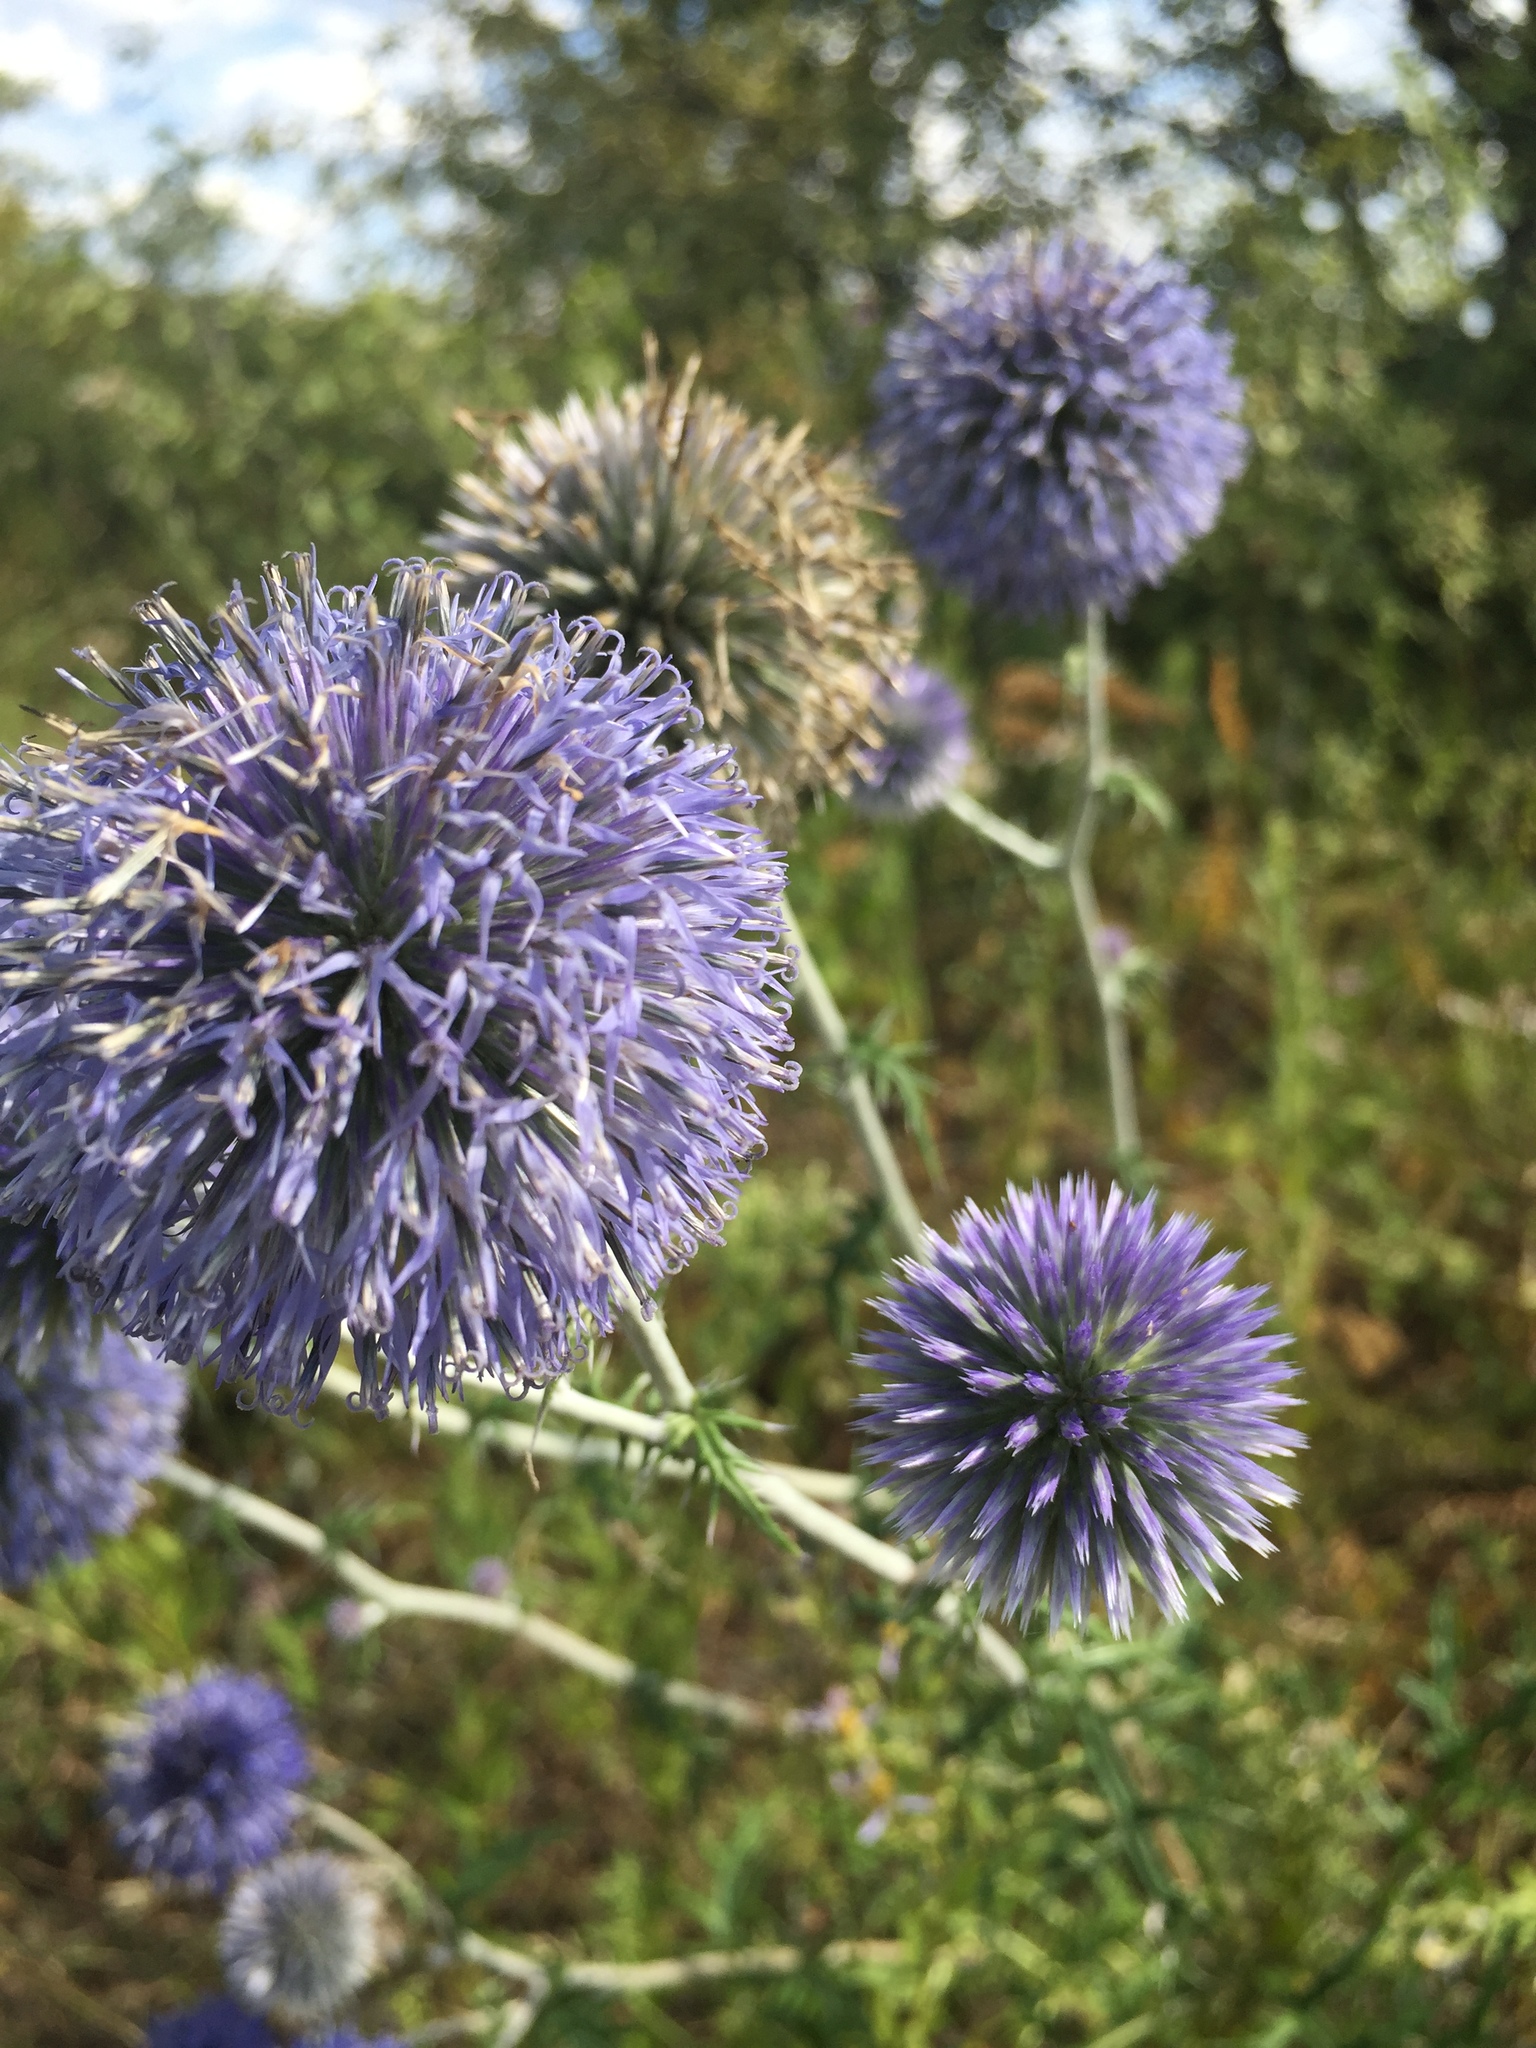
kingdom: Plantae
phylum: Tracheophyta
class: Magnoliopsida
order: Asterales
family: Asteraceae
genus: Echinops
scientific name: Echinops ritro
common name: Globe thistle
